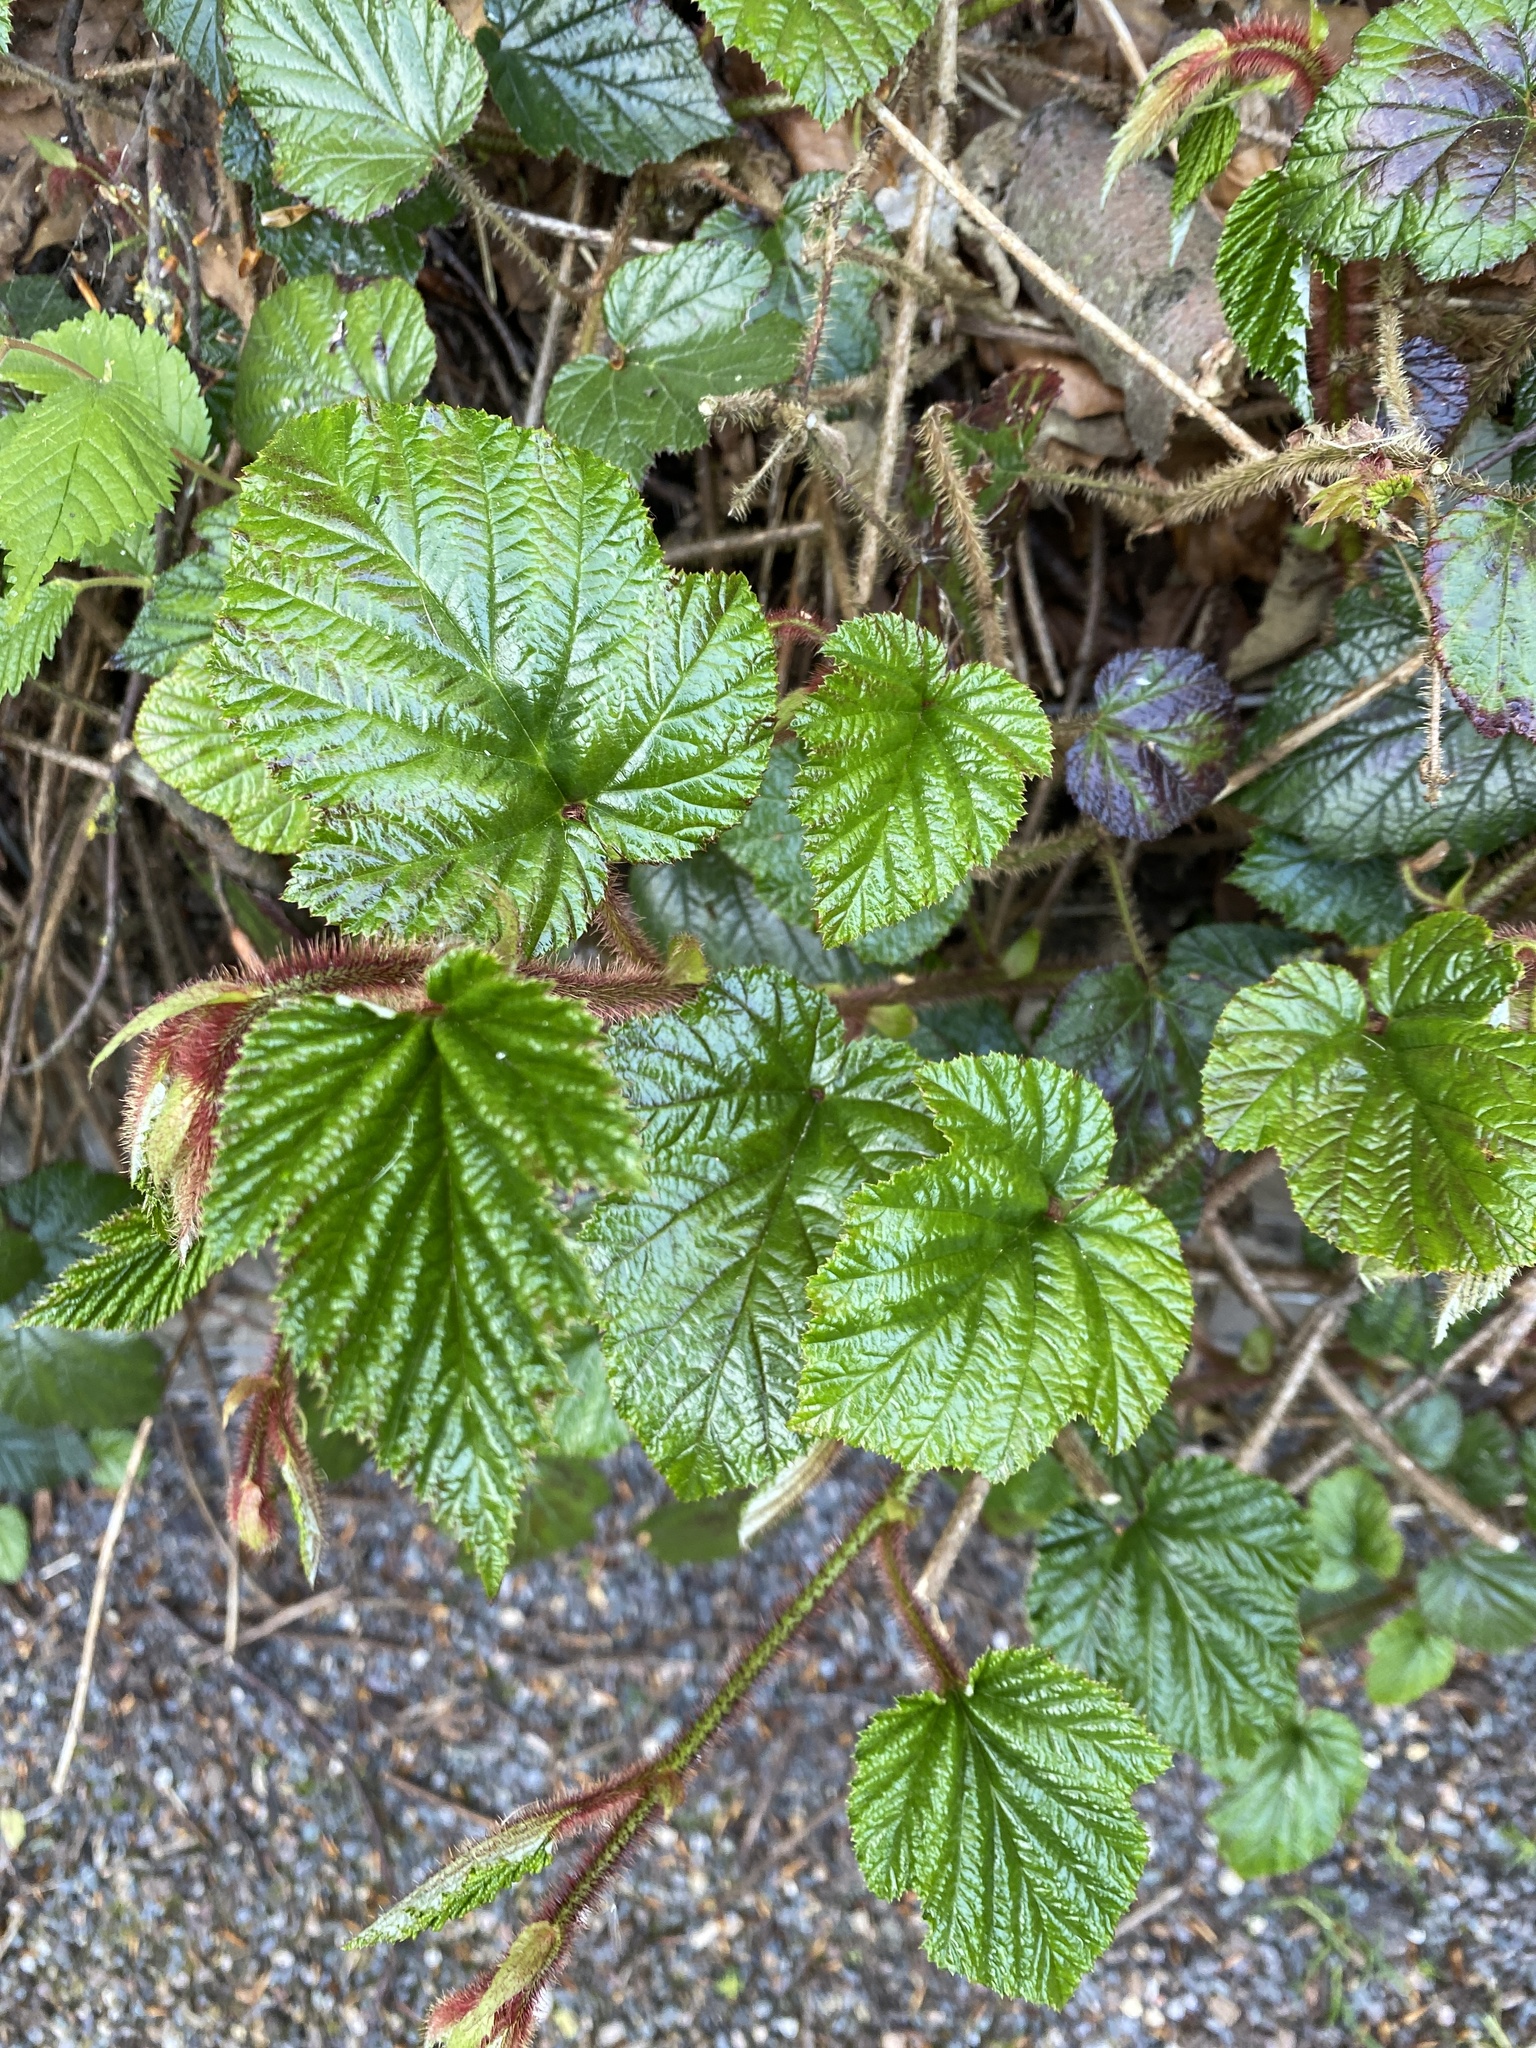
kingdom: Plantae
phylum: Tracheophyta
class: Magnoliopsida
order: Rosales
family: Rosaceae
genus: Rubus
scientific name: Rubus
